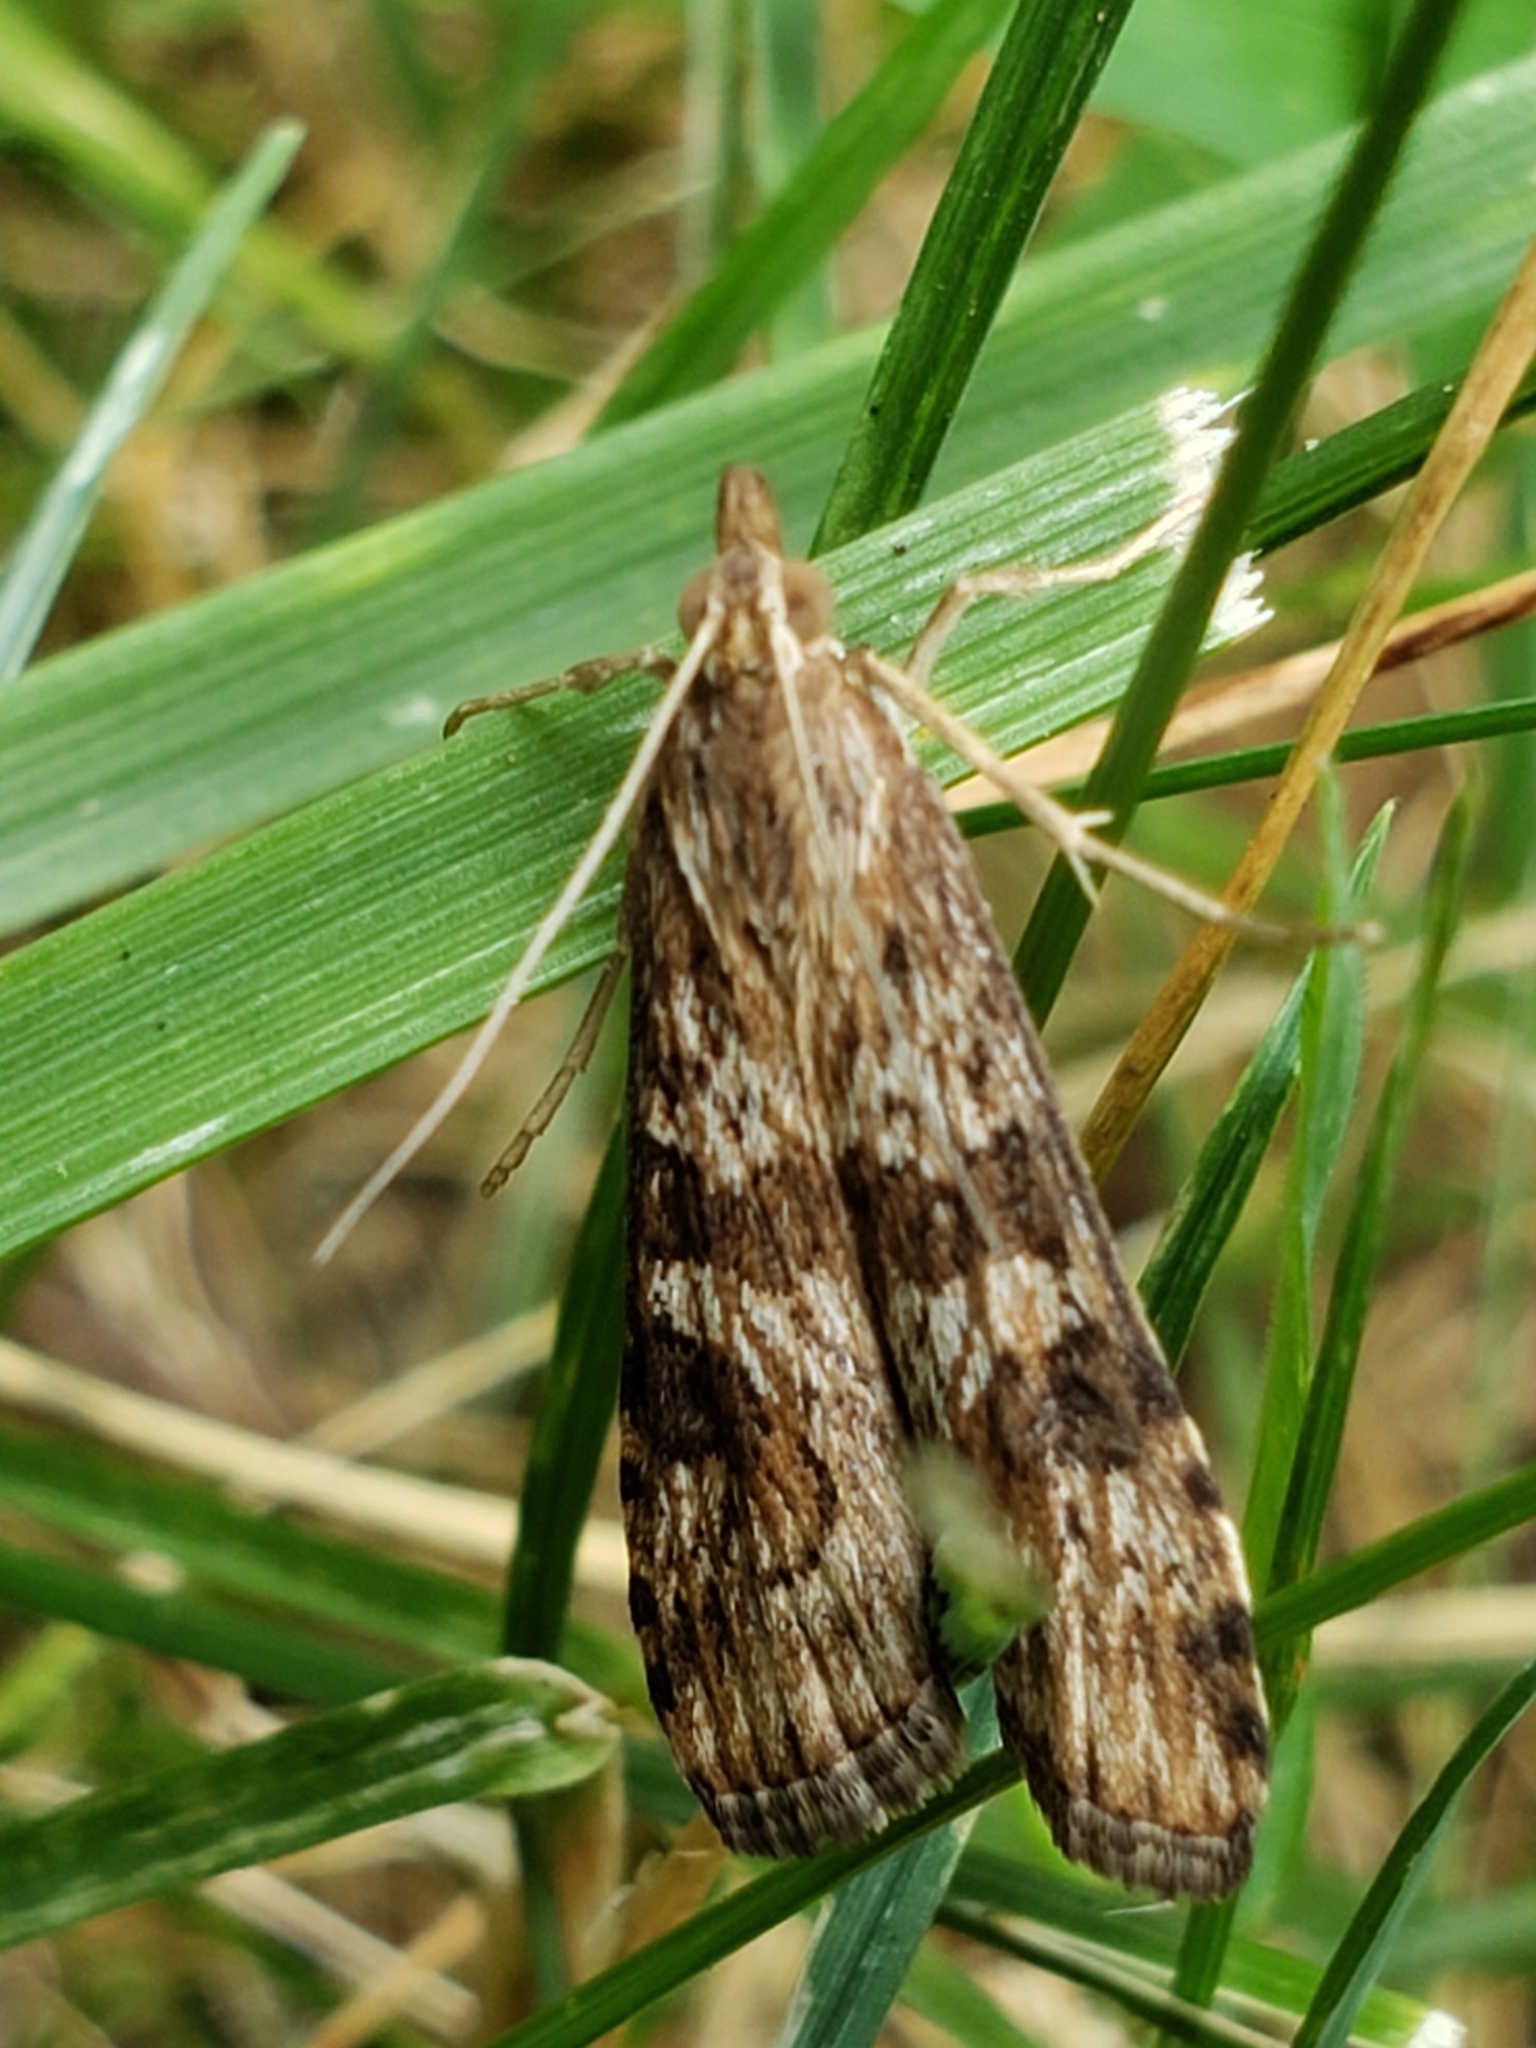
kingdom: Animalia
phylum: Arthropoda
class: Insecta
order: Lepidoptera
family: Crambidae
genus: Nomophila
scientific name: Nomophila nearctica
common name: American rush veneer
